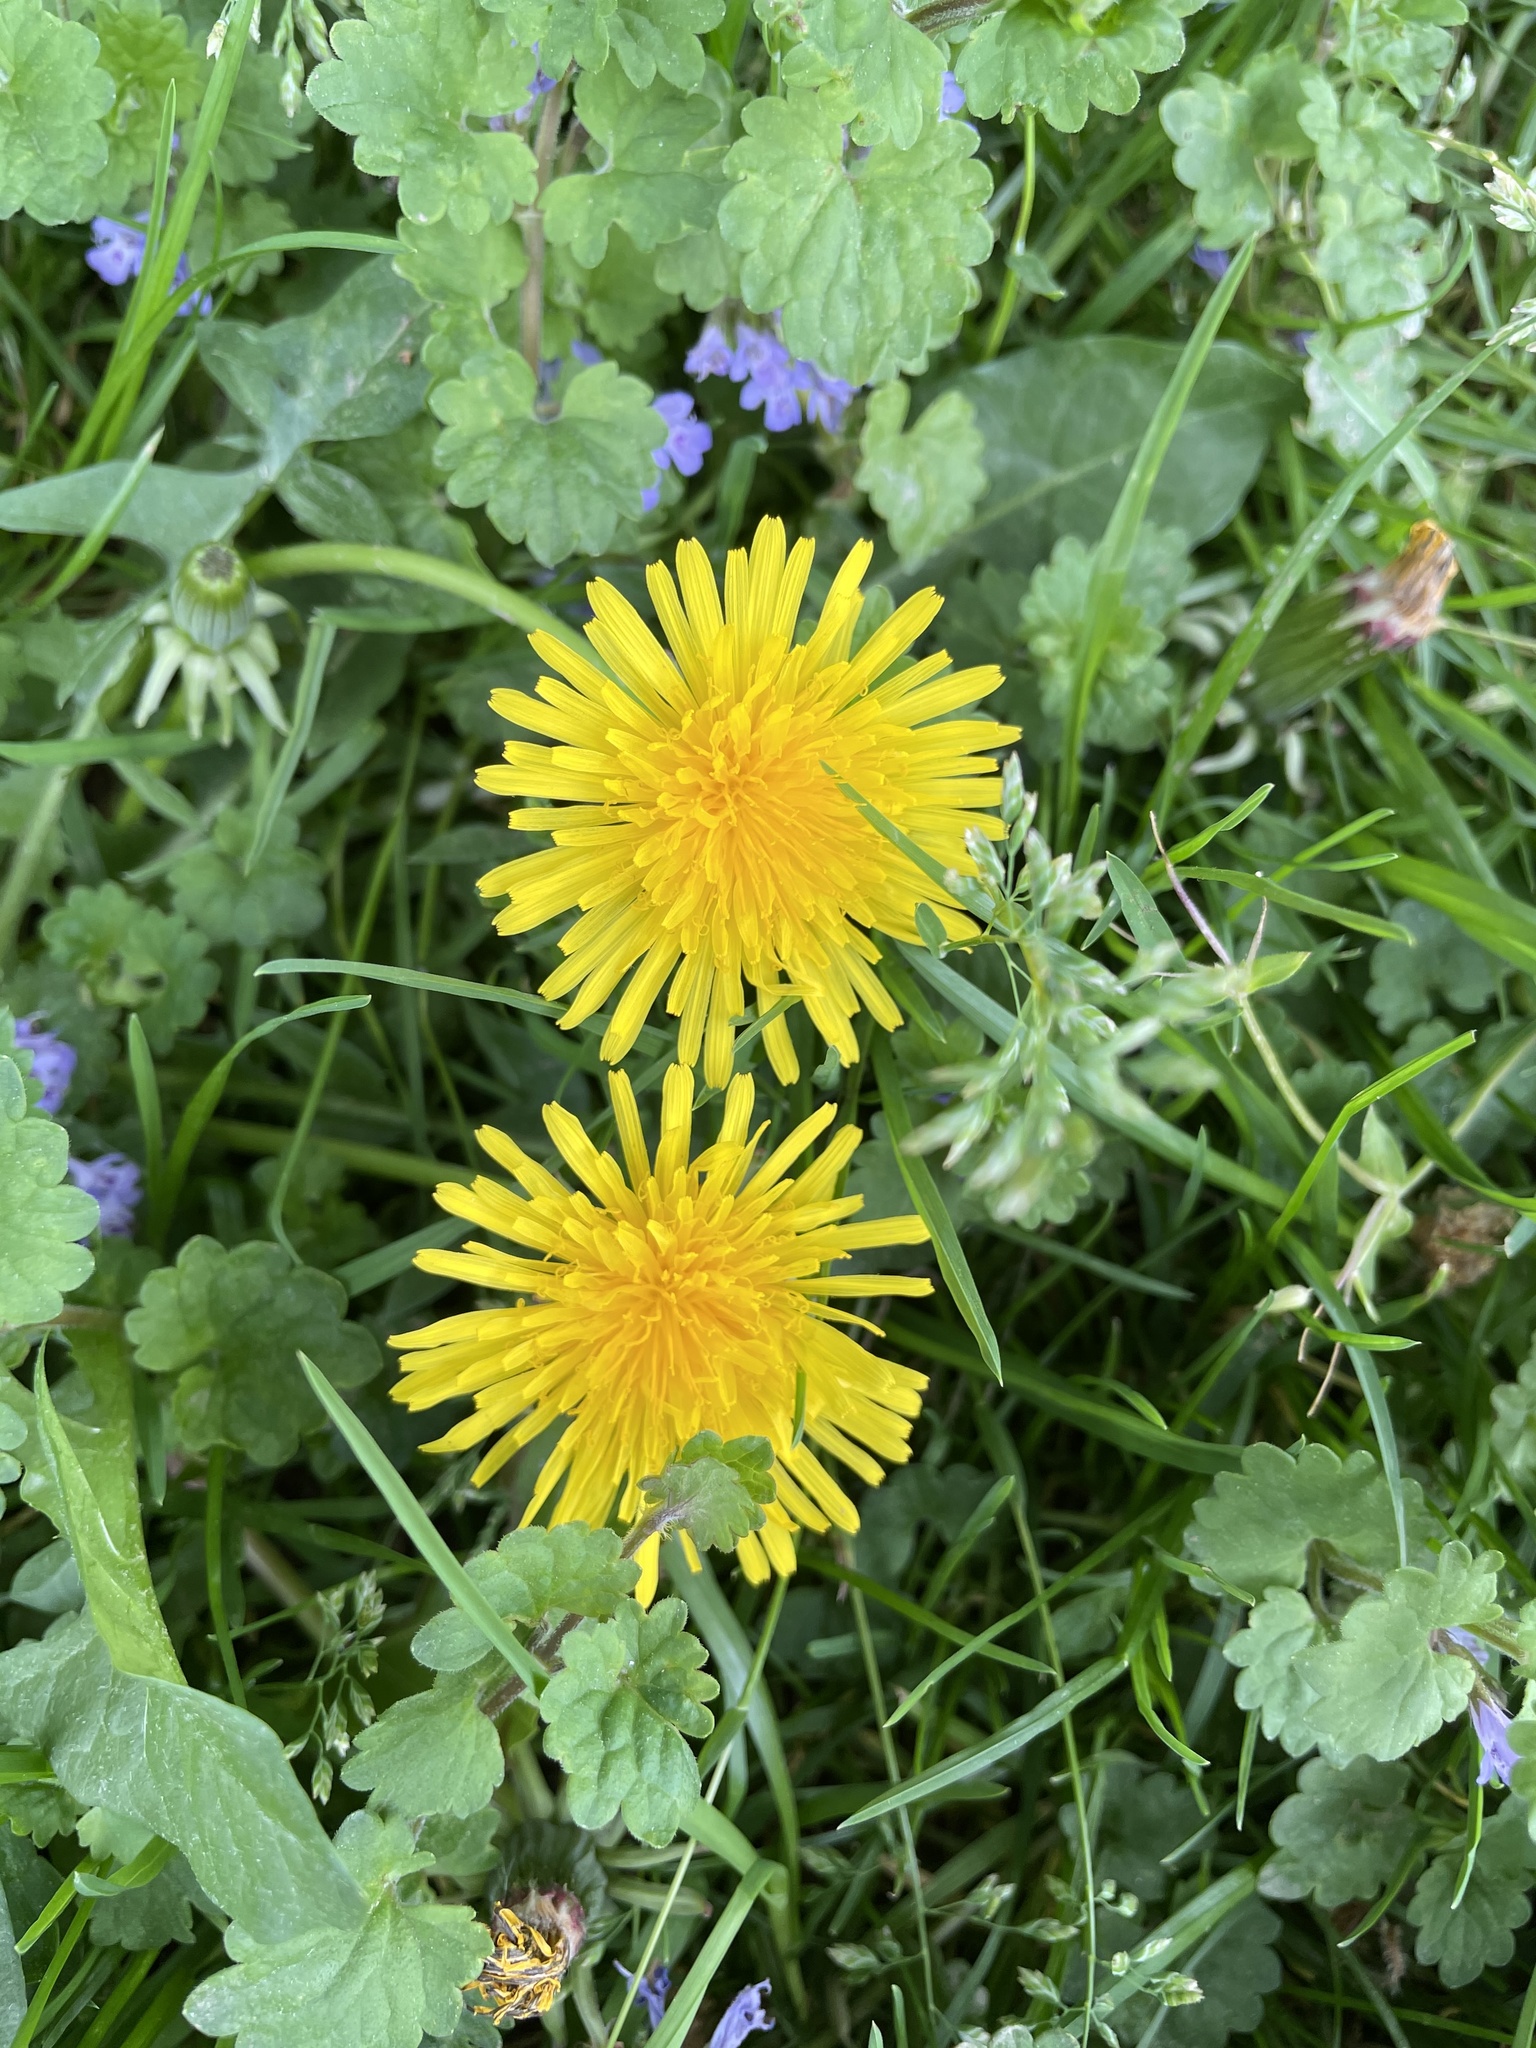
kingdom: Plantae
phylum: Tracheophyta
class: Magnoliopsida
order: Asterales
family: Asteraceae
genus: Taraxacum
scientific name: Taraxacum officinale
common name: Common dandelion
